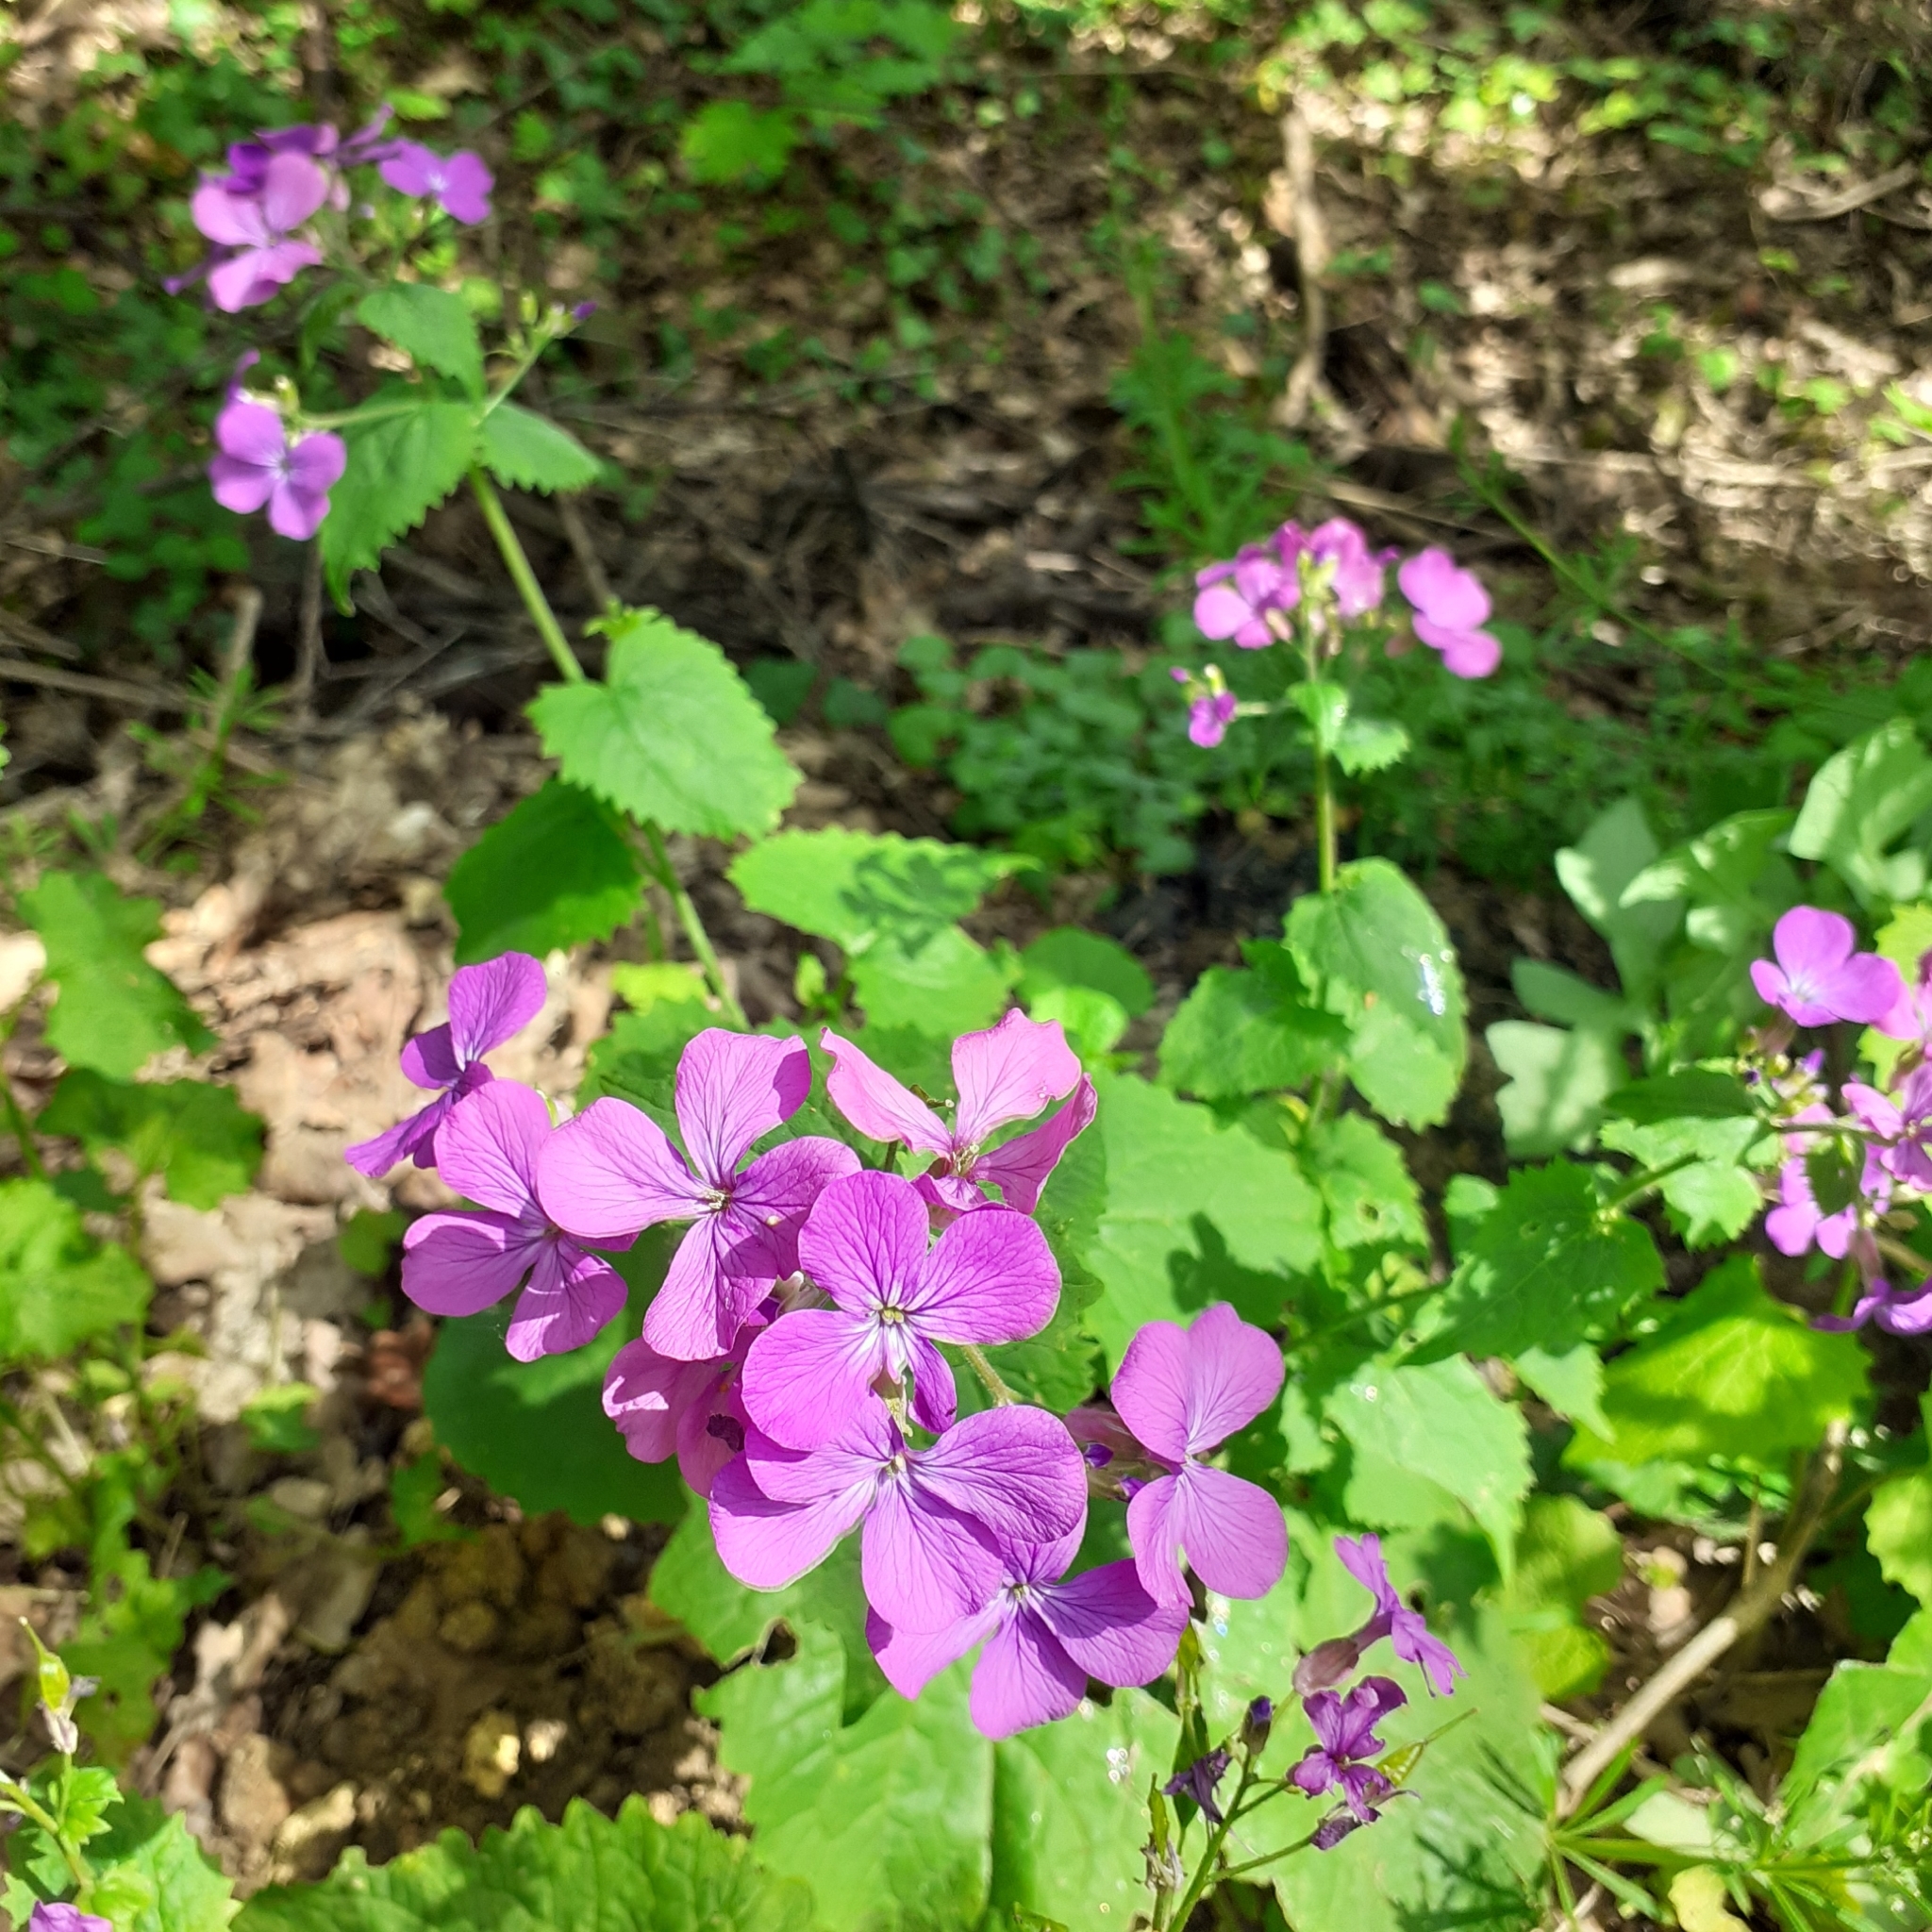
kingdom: Plantae
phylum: Tracheophyta
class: Magnoliopsida
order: Brassicales
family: Brassicaceae
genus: Lunaria
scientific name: Lunaria annua
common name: Honesty
